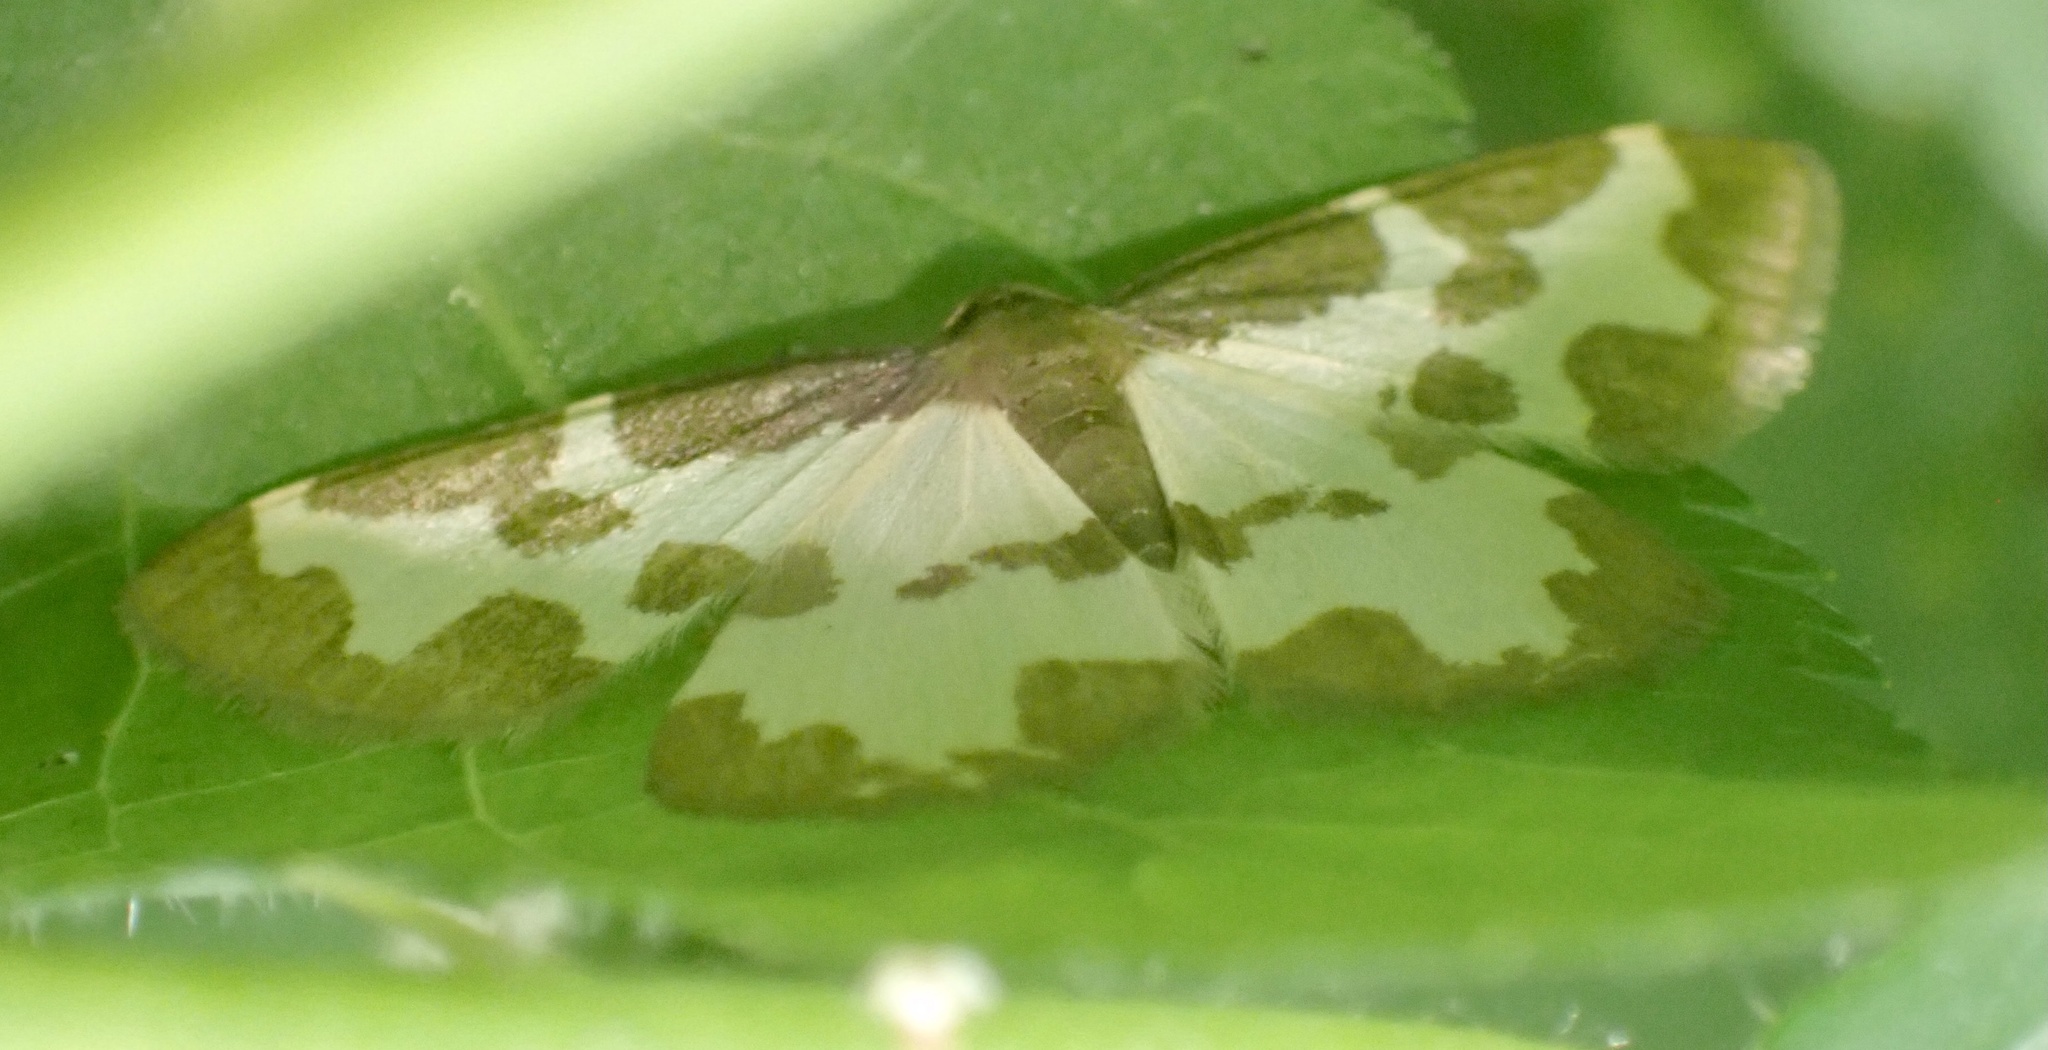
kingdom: Animalia
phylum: Arthropoda
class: Insecta
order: Lepidoptera
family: Geometridae
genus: Lomaspilis
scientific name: Lomaspilis marginata
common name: Clouded border
